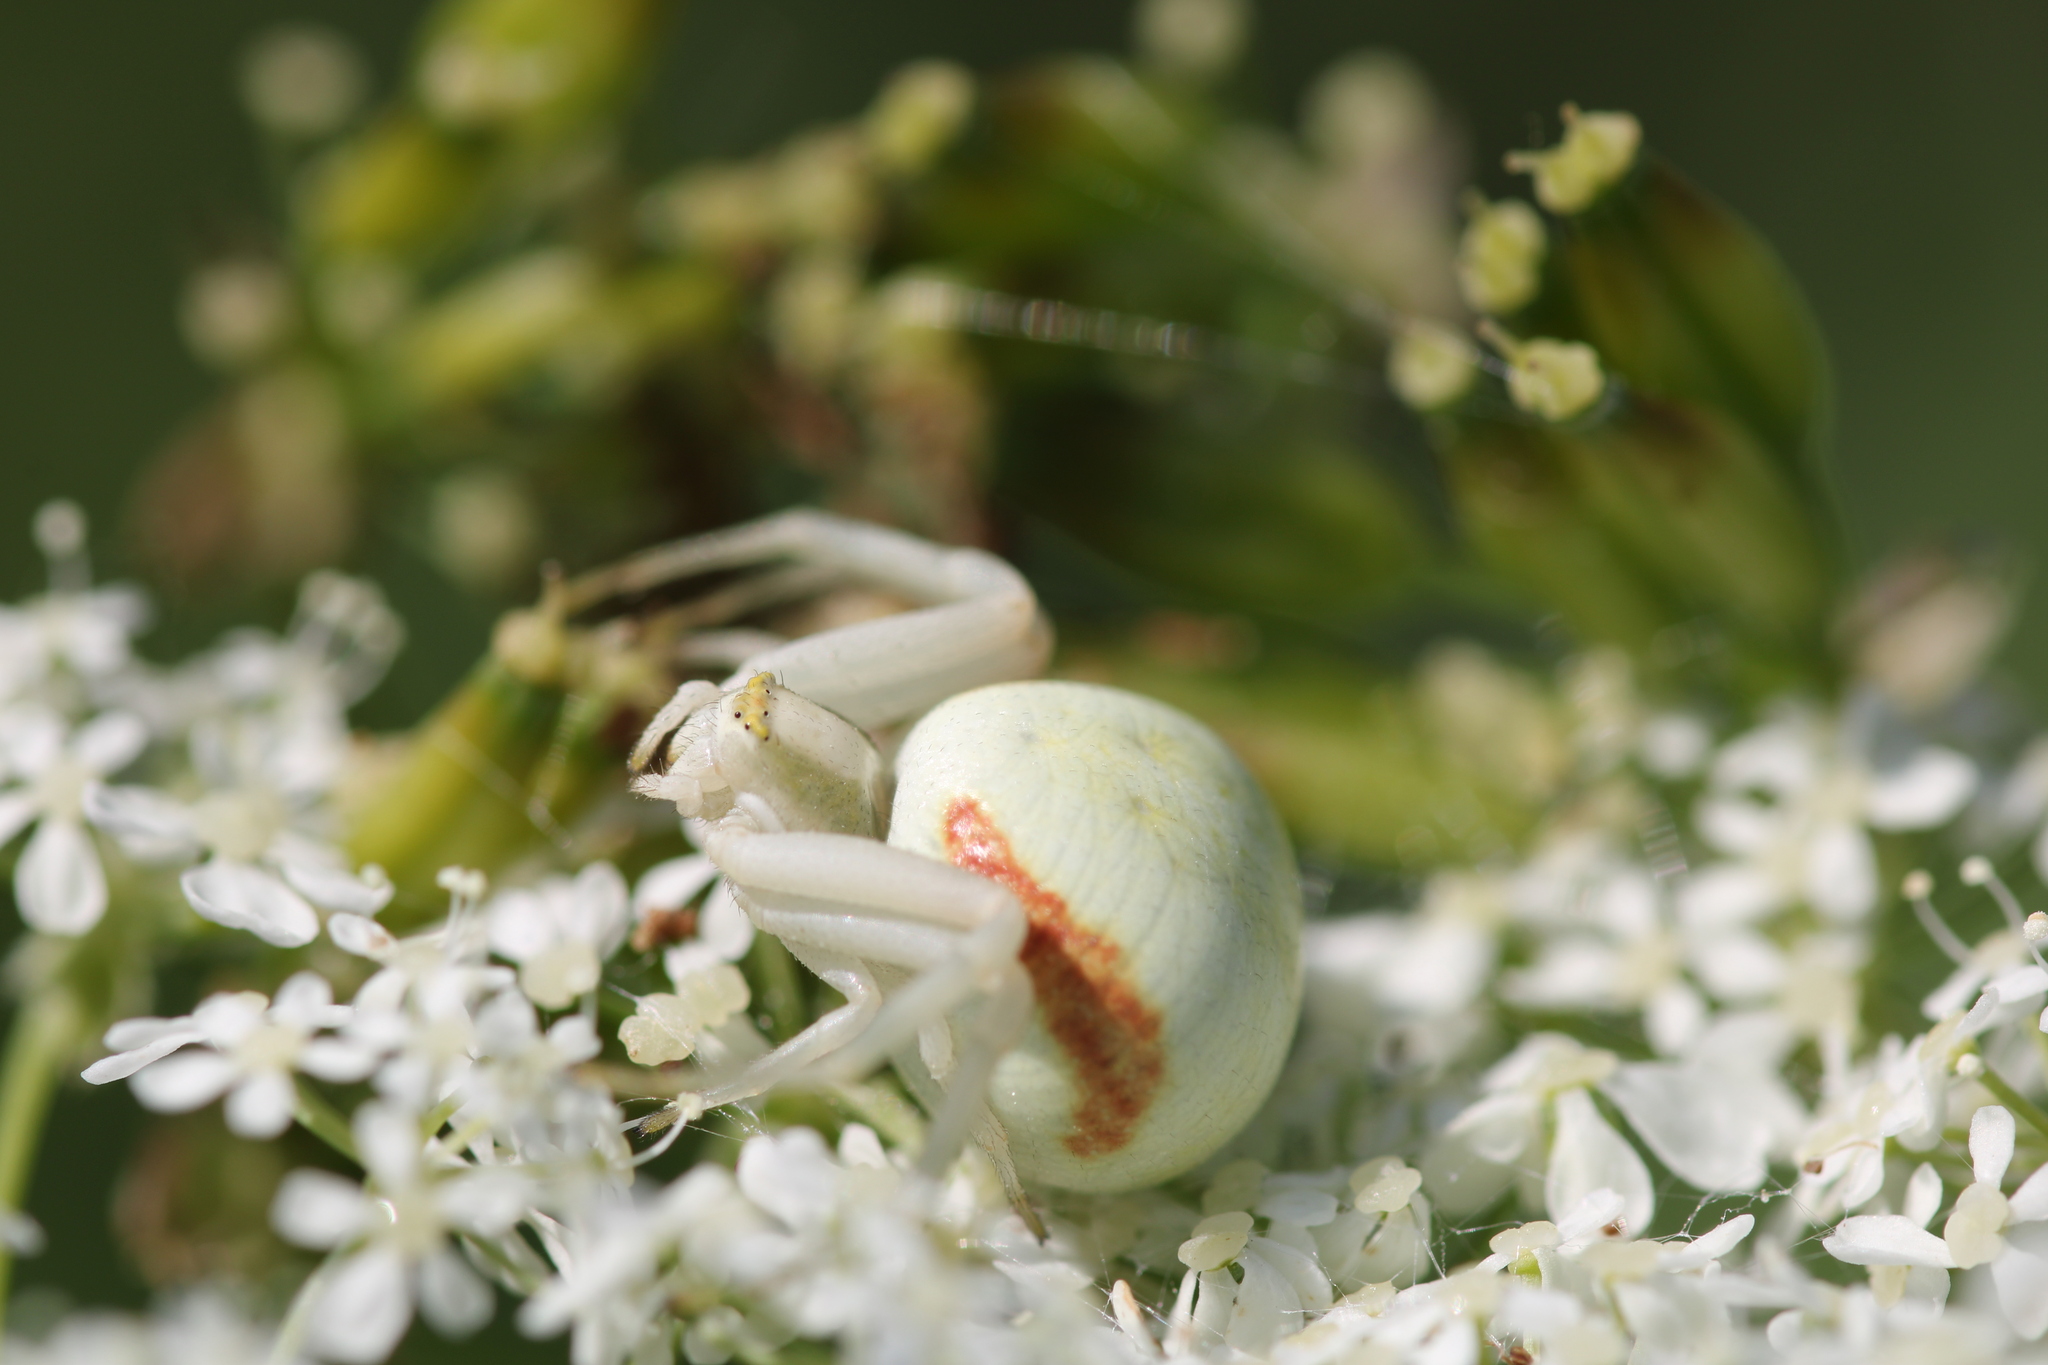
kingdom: Animalia
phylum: Arthropoda
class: Arachnida
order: Araneae
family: Thomisidae
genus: Misumena
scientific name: Misumena vatia
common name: Goldenrod crab spider
